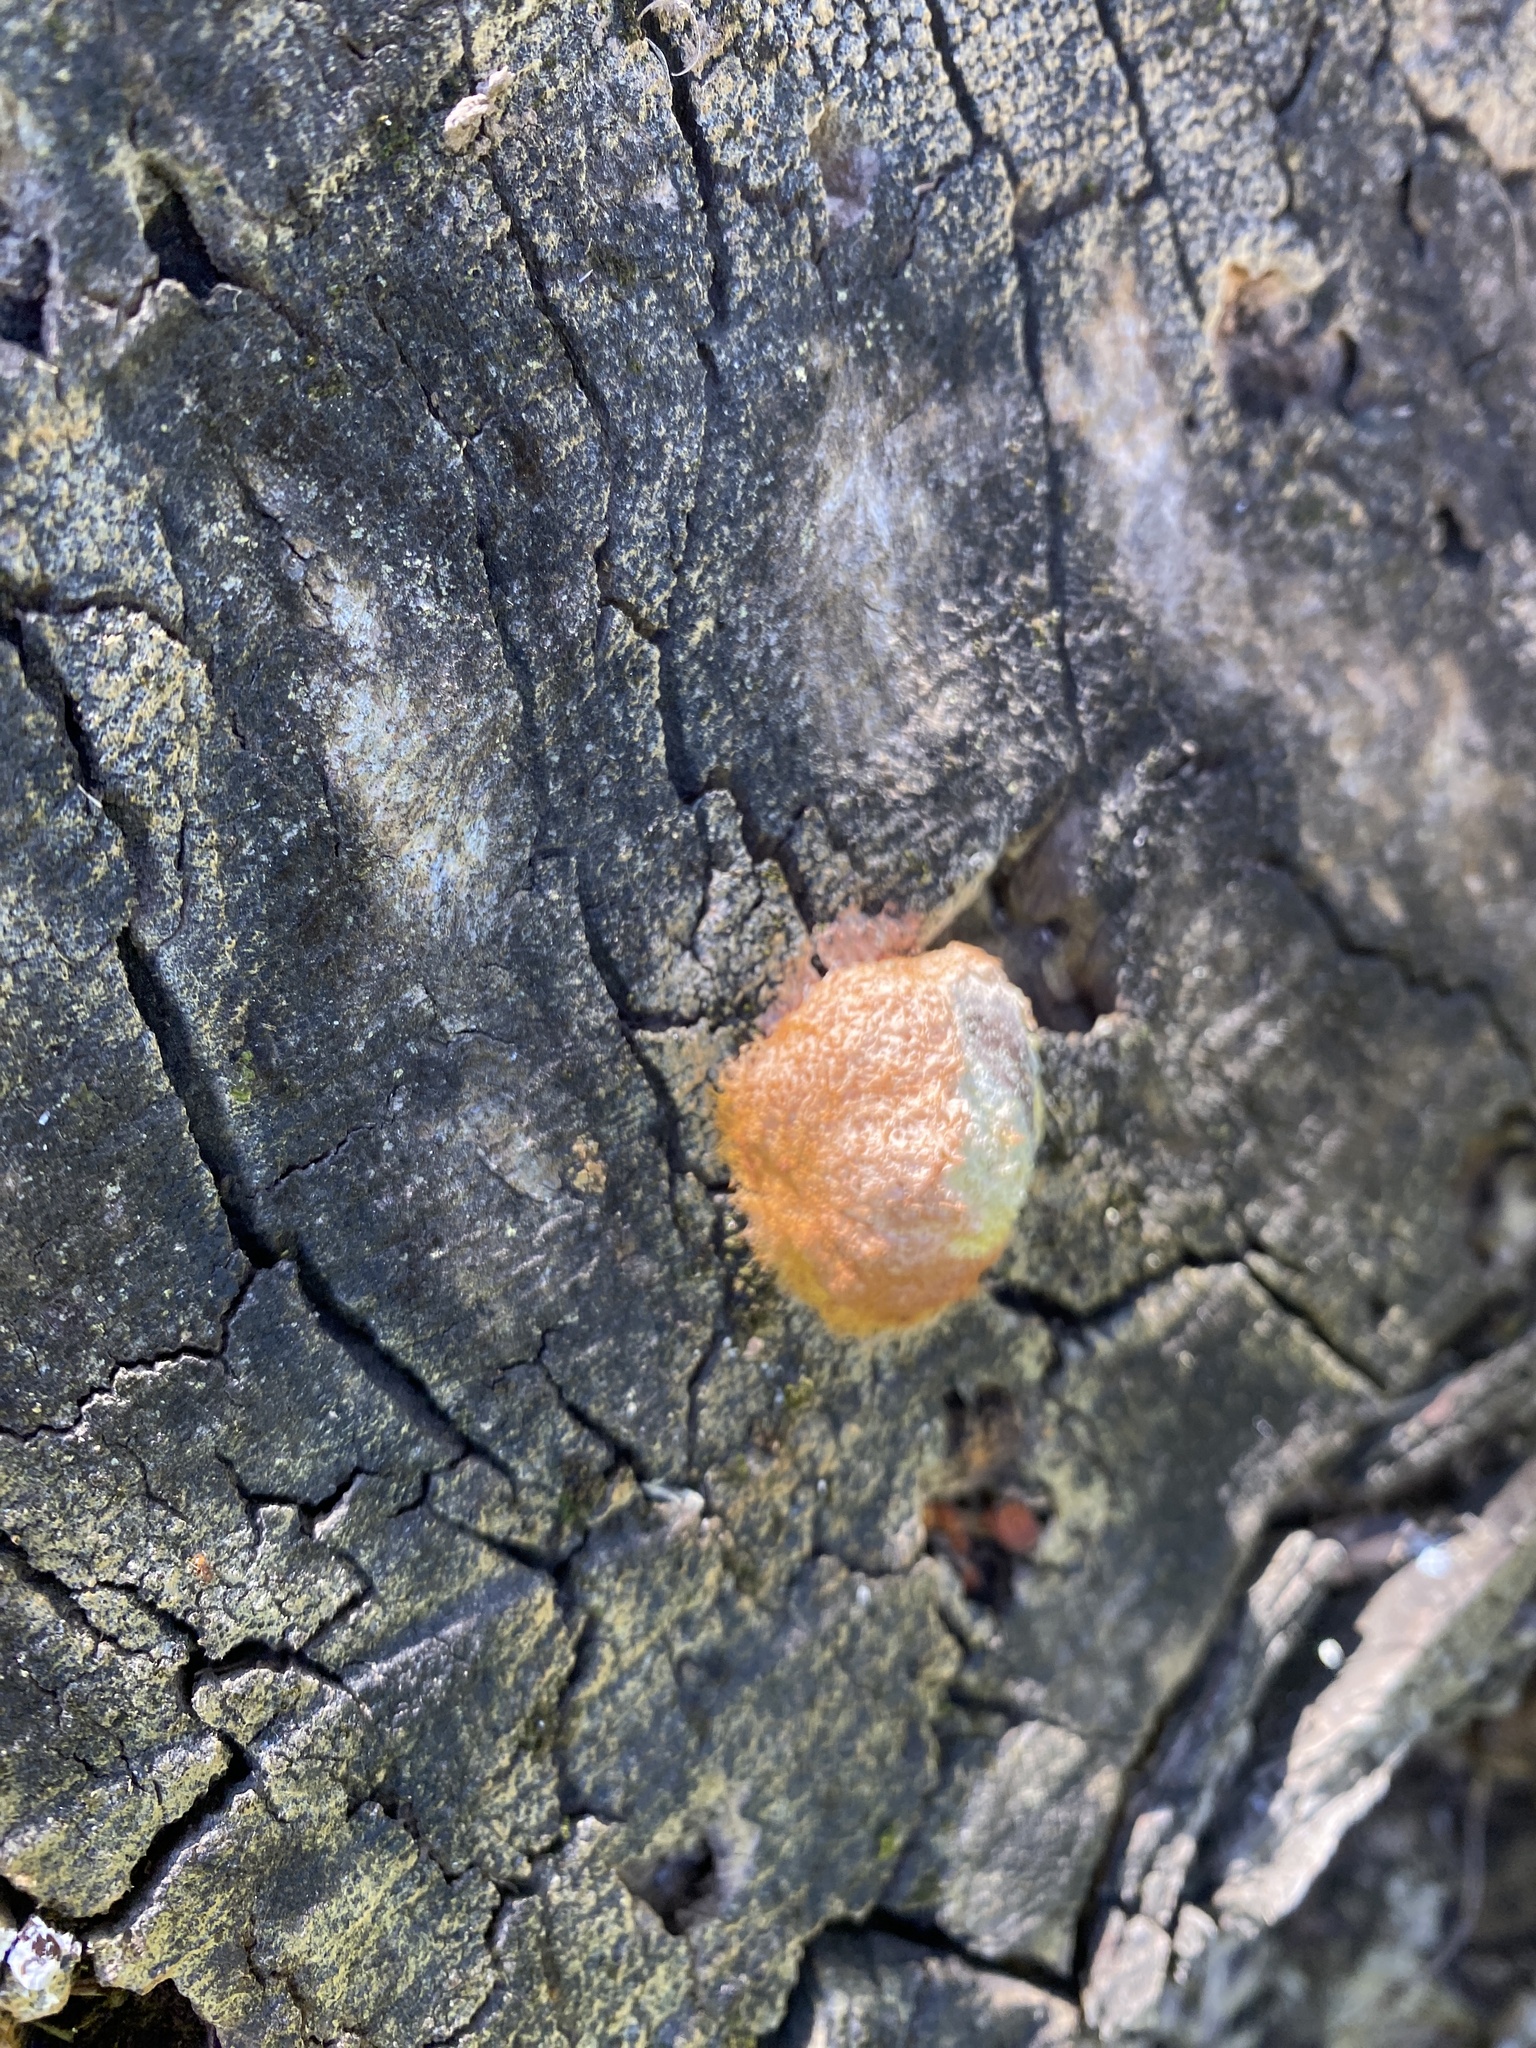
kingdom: Protozoa
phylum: Mycetozoa
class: Myxomycetes
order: Physarales
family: Physaraceae
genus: Fuligo
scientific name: Fuligo septica
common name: Dog vomit slime mold
